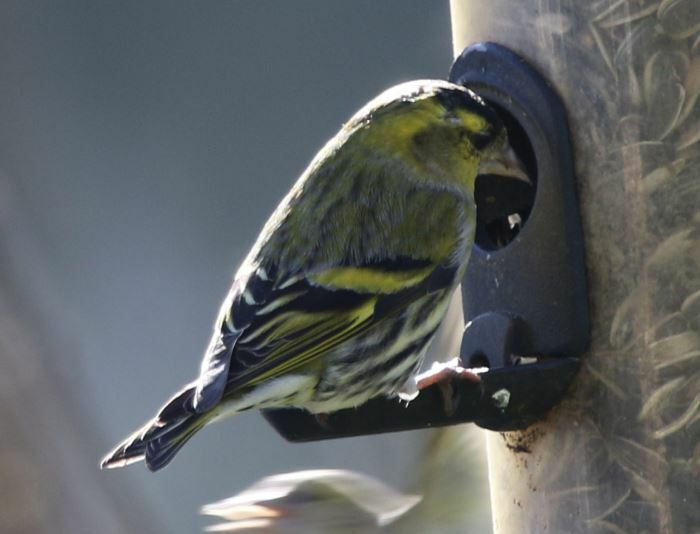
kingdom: Animalia
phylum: Chordata
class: Aves
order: Passeriformes
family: Fringillidae
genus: Spinus
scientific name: Spinus spinus
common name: Eurasian siskin
